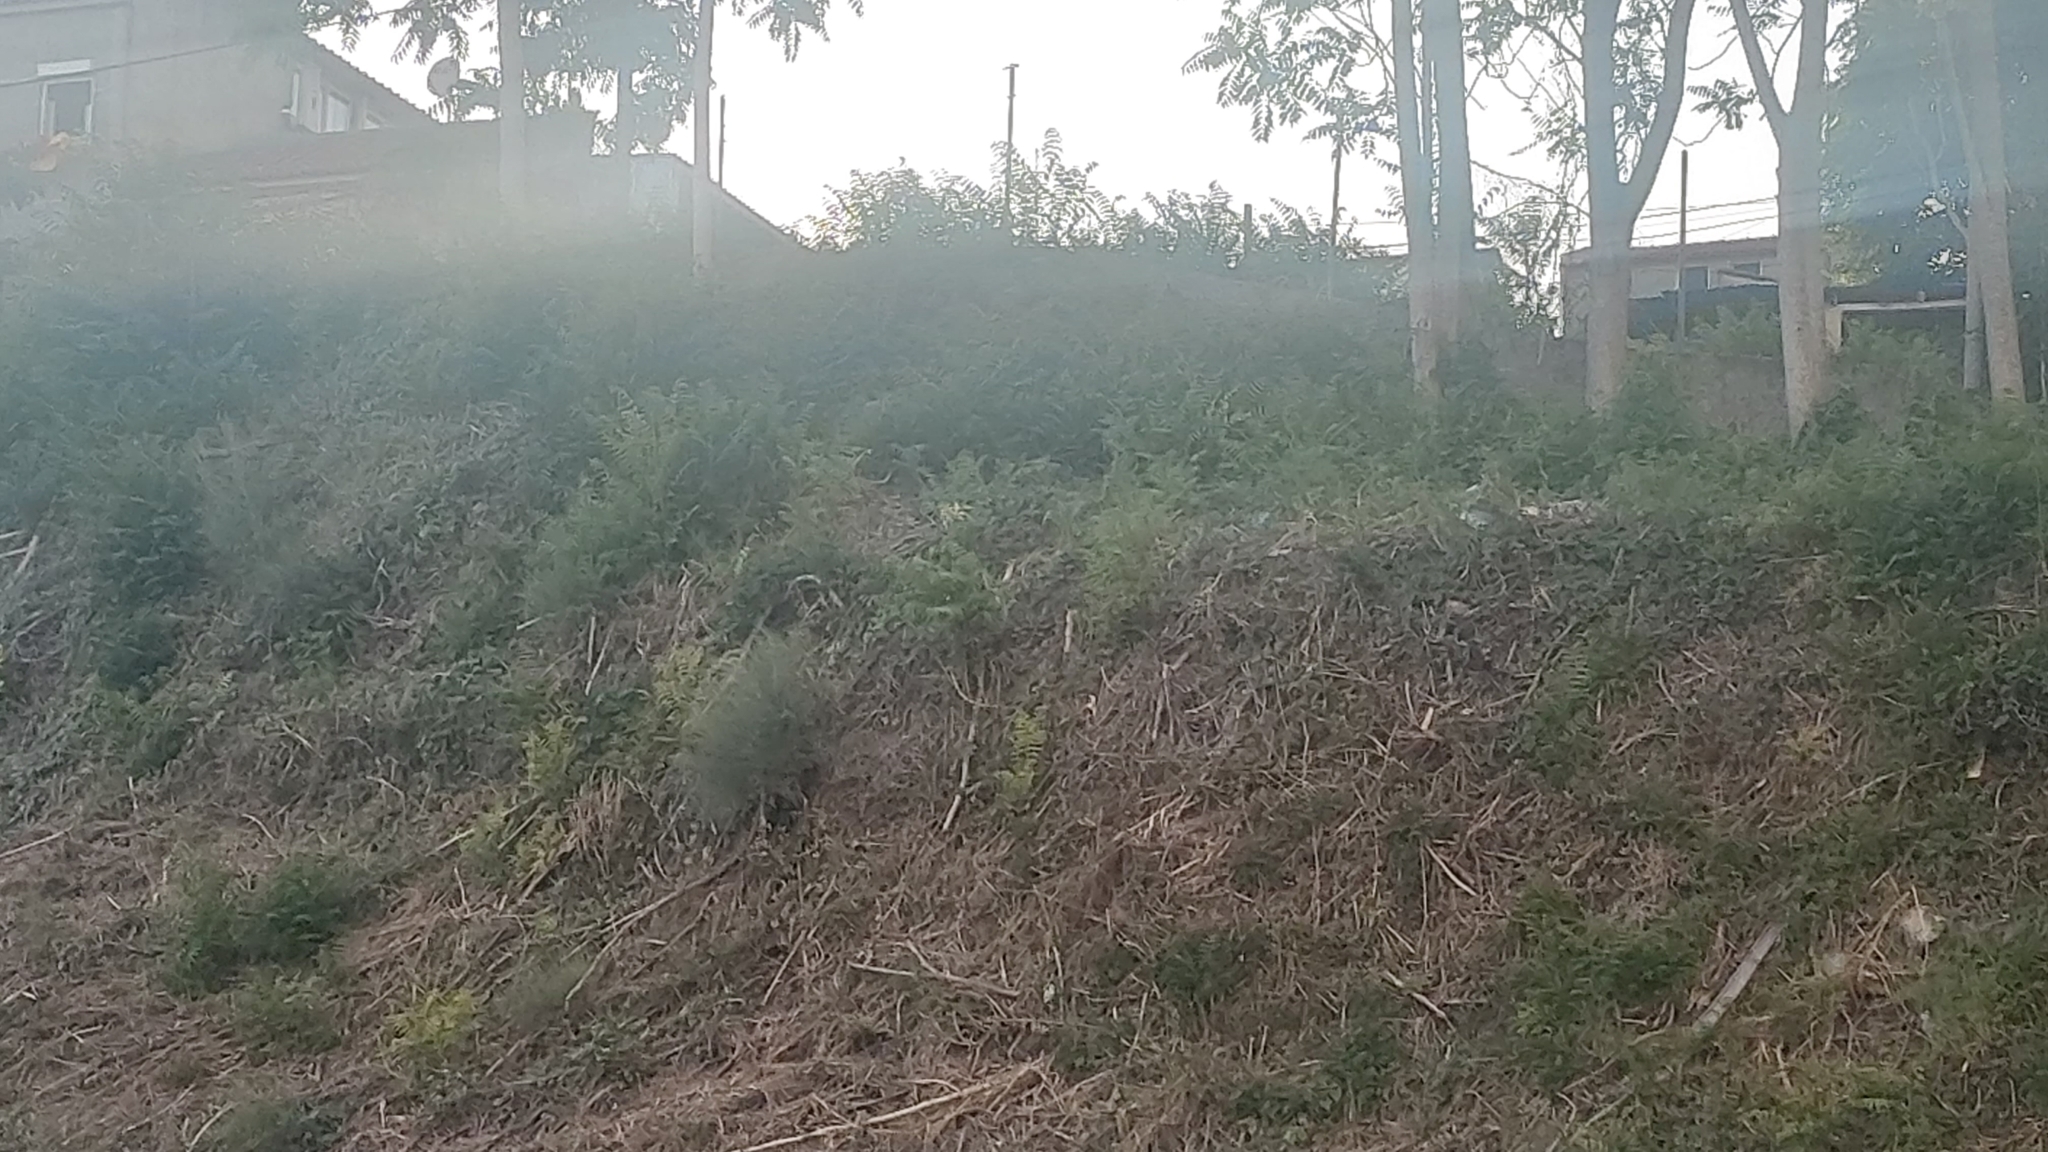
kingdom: Plantae
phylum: Tracheophyta
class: Magnoliopsida
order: Sapindales
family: Simaroubaceae
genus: Ailanthus
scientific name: Ailanthus altissima
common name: Tree-of-heaven
